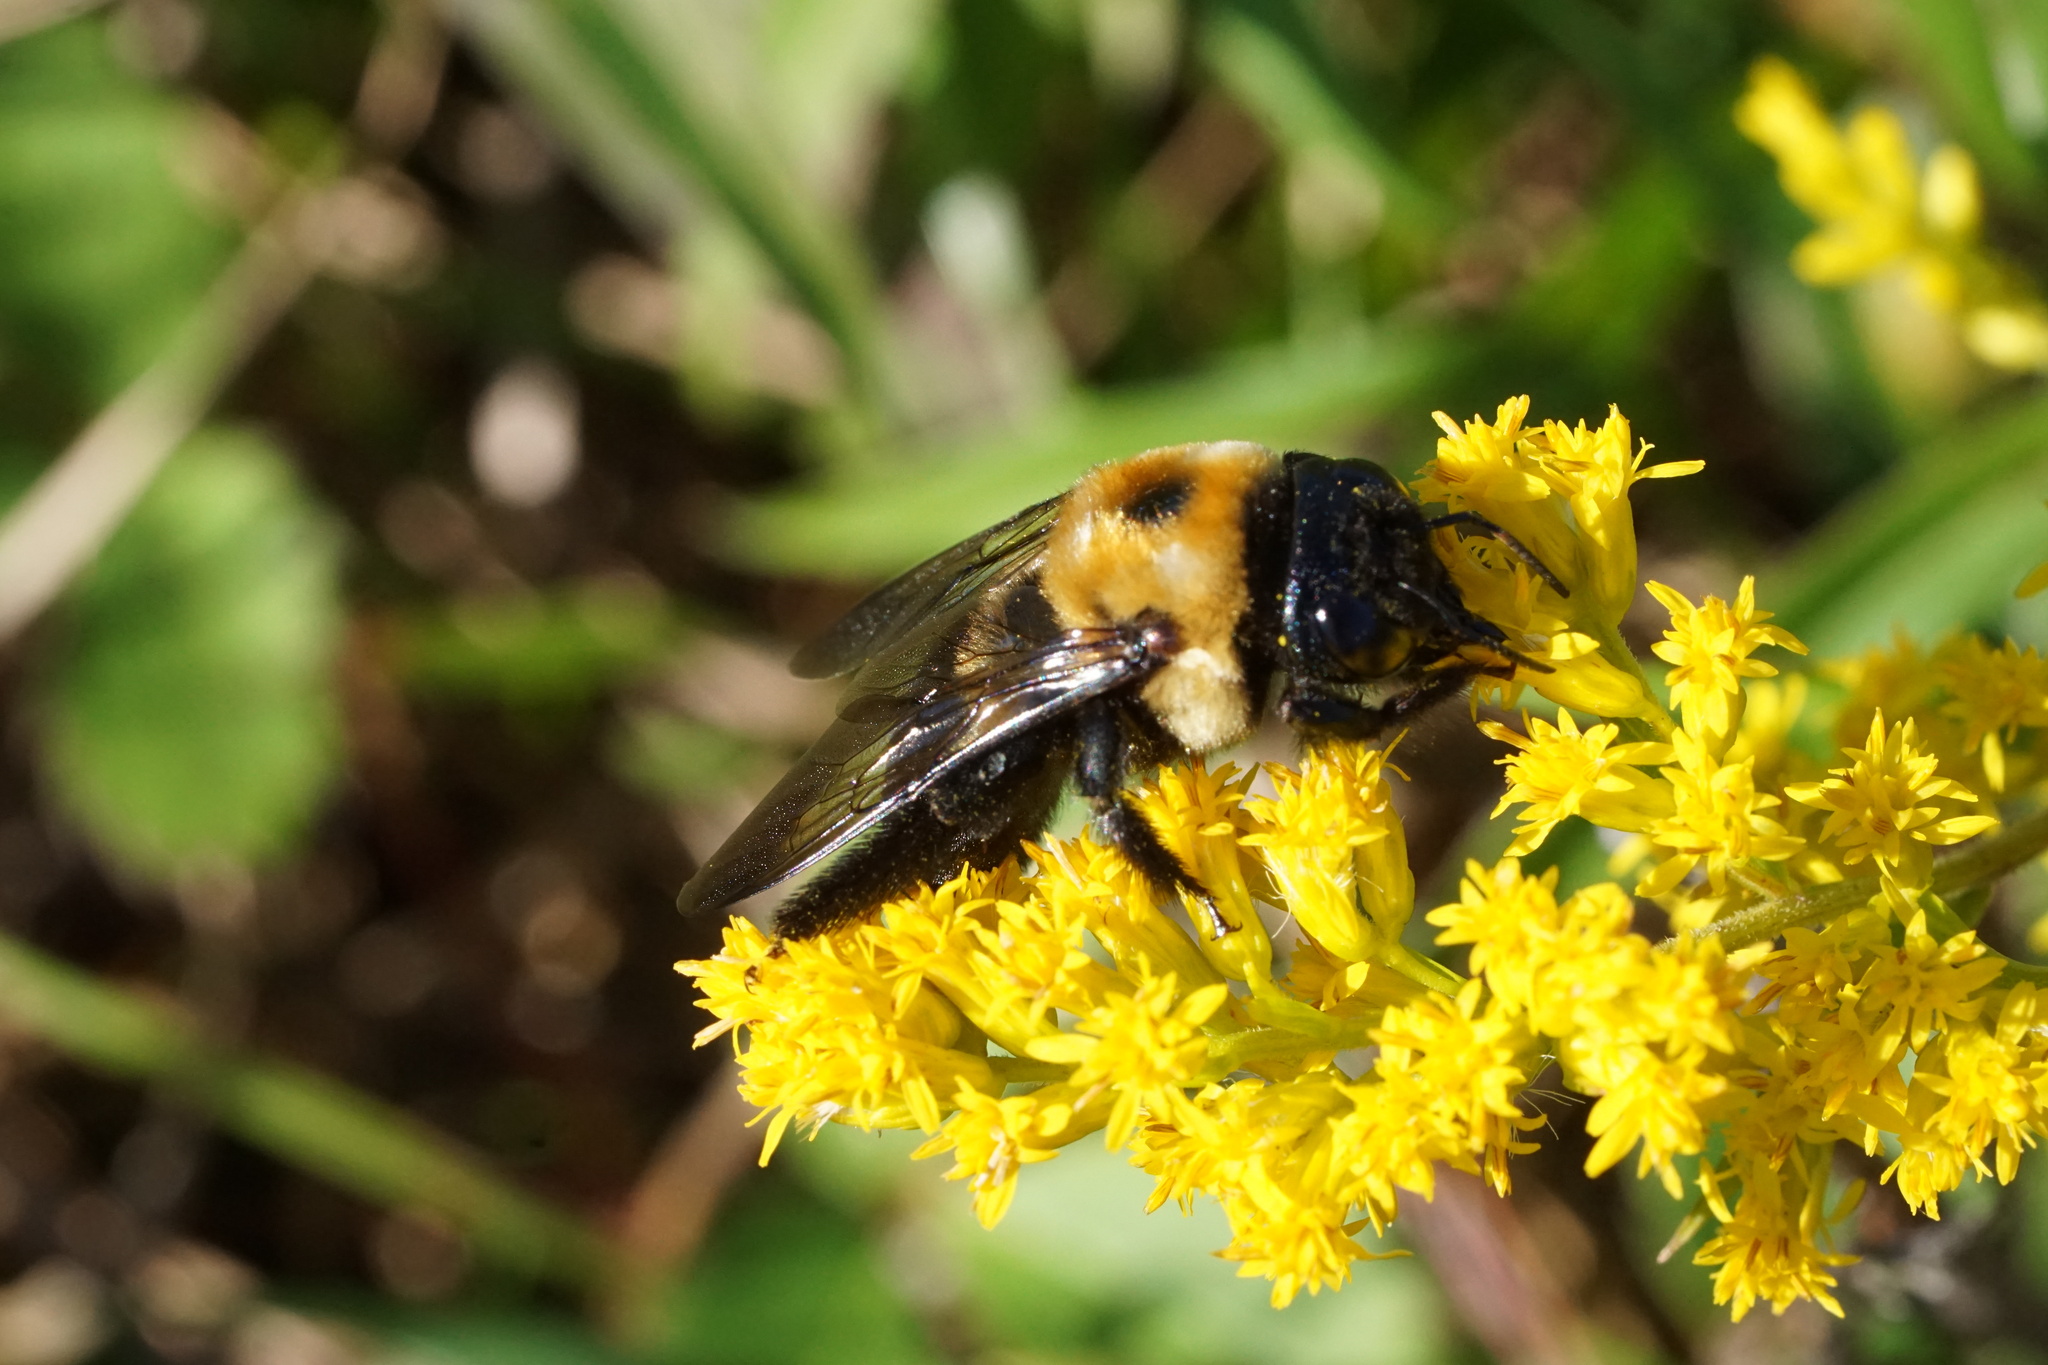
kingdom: Animalia
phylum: Arthropoda
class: Insecta
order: Hymenoptera
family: Apidae
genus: Xylocopa
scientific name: Xylocopa virginica
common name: Carpenter bee
